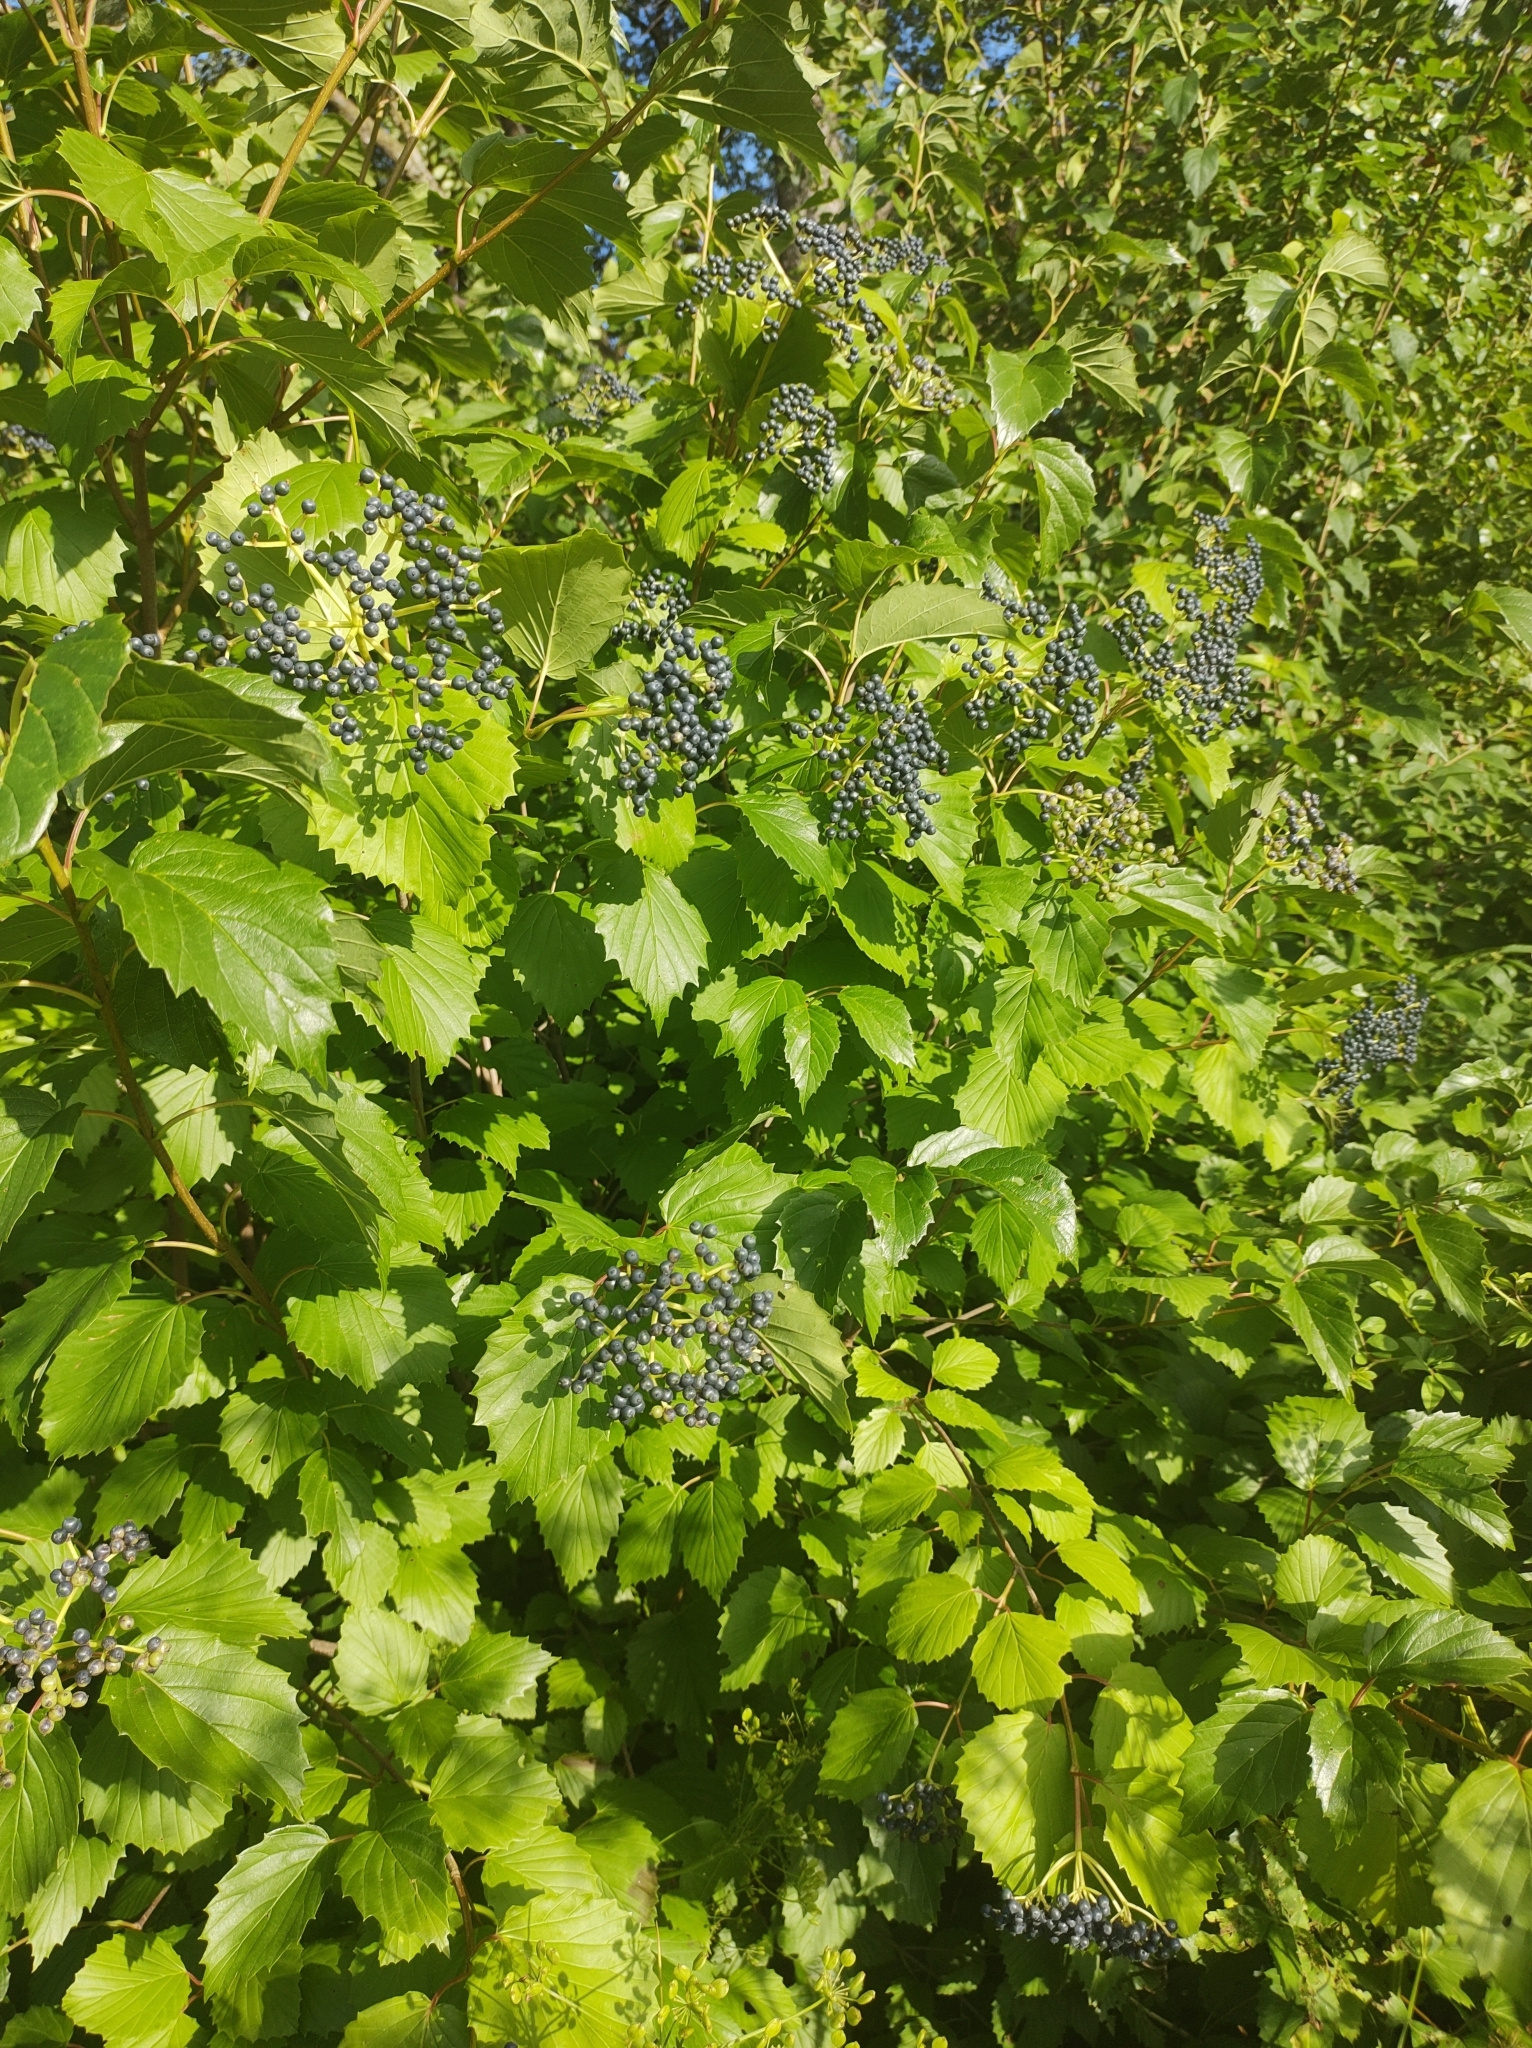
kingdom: Plantae
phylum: Tracheophyta
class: Magnoliopsida
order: Dipsacales
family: Viburnaceae
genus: Viburnum
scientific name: Viburnum recognitum
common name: Northern arrow-wood
